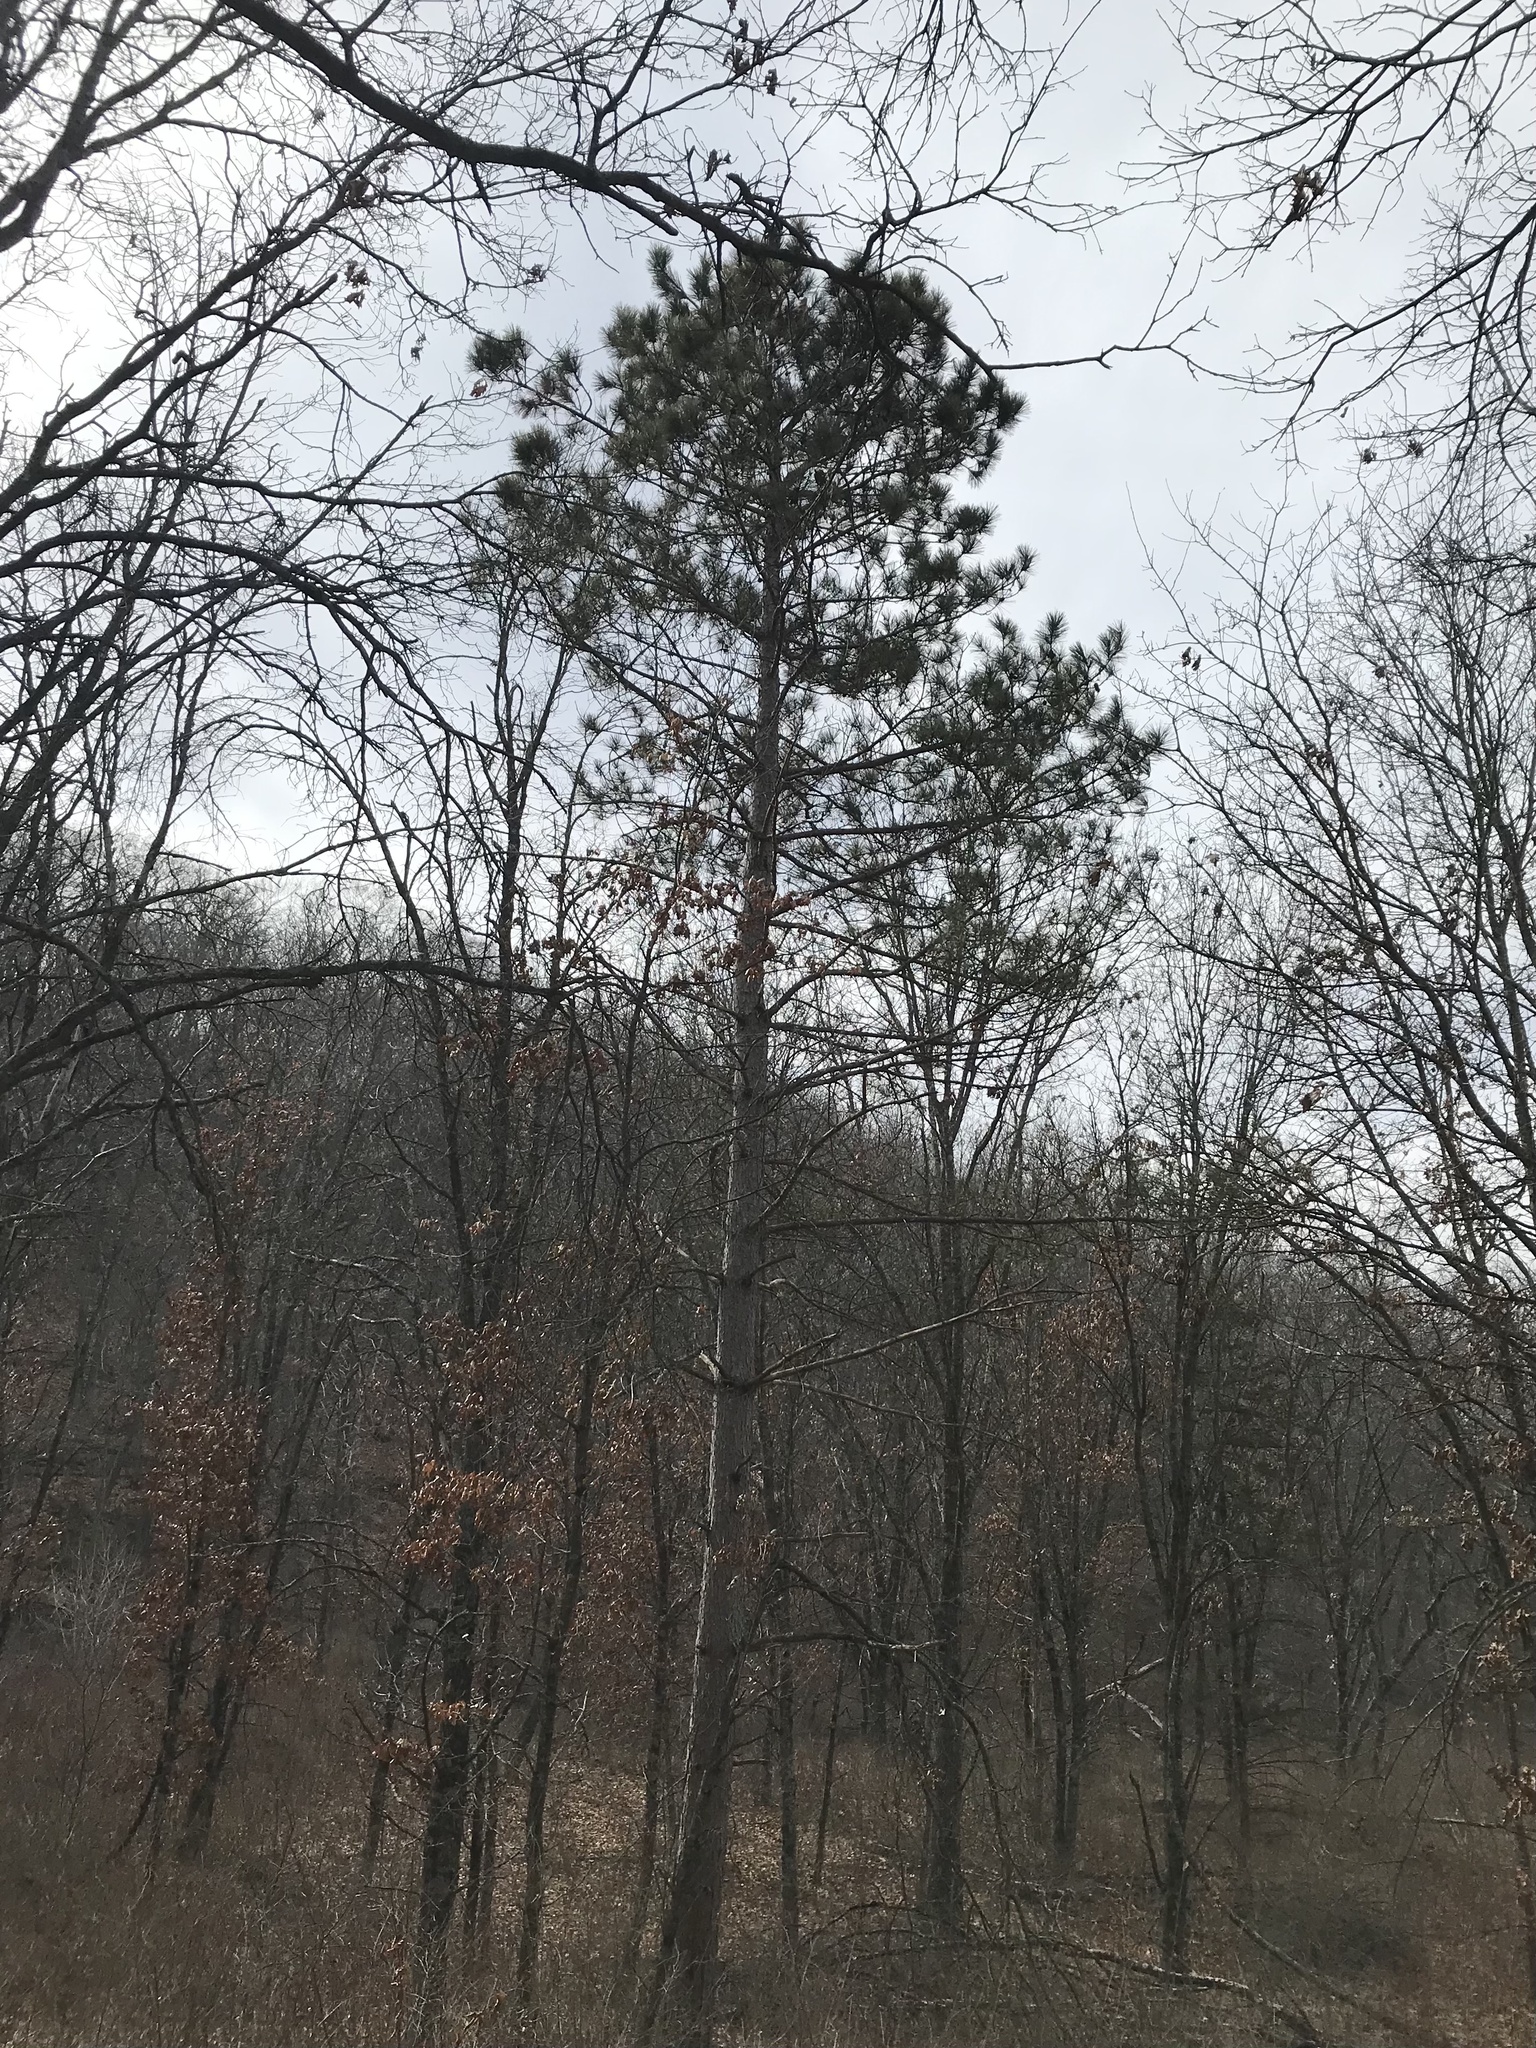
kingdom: Plantae
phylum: Tracheophyta
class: Pinopsida
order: Pinales
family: Pinaceae
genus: Pinus
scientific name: Pinus resinosa
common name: Norway pine
